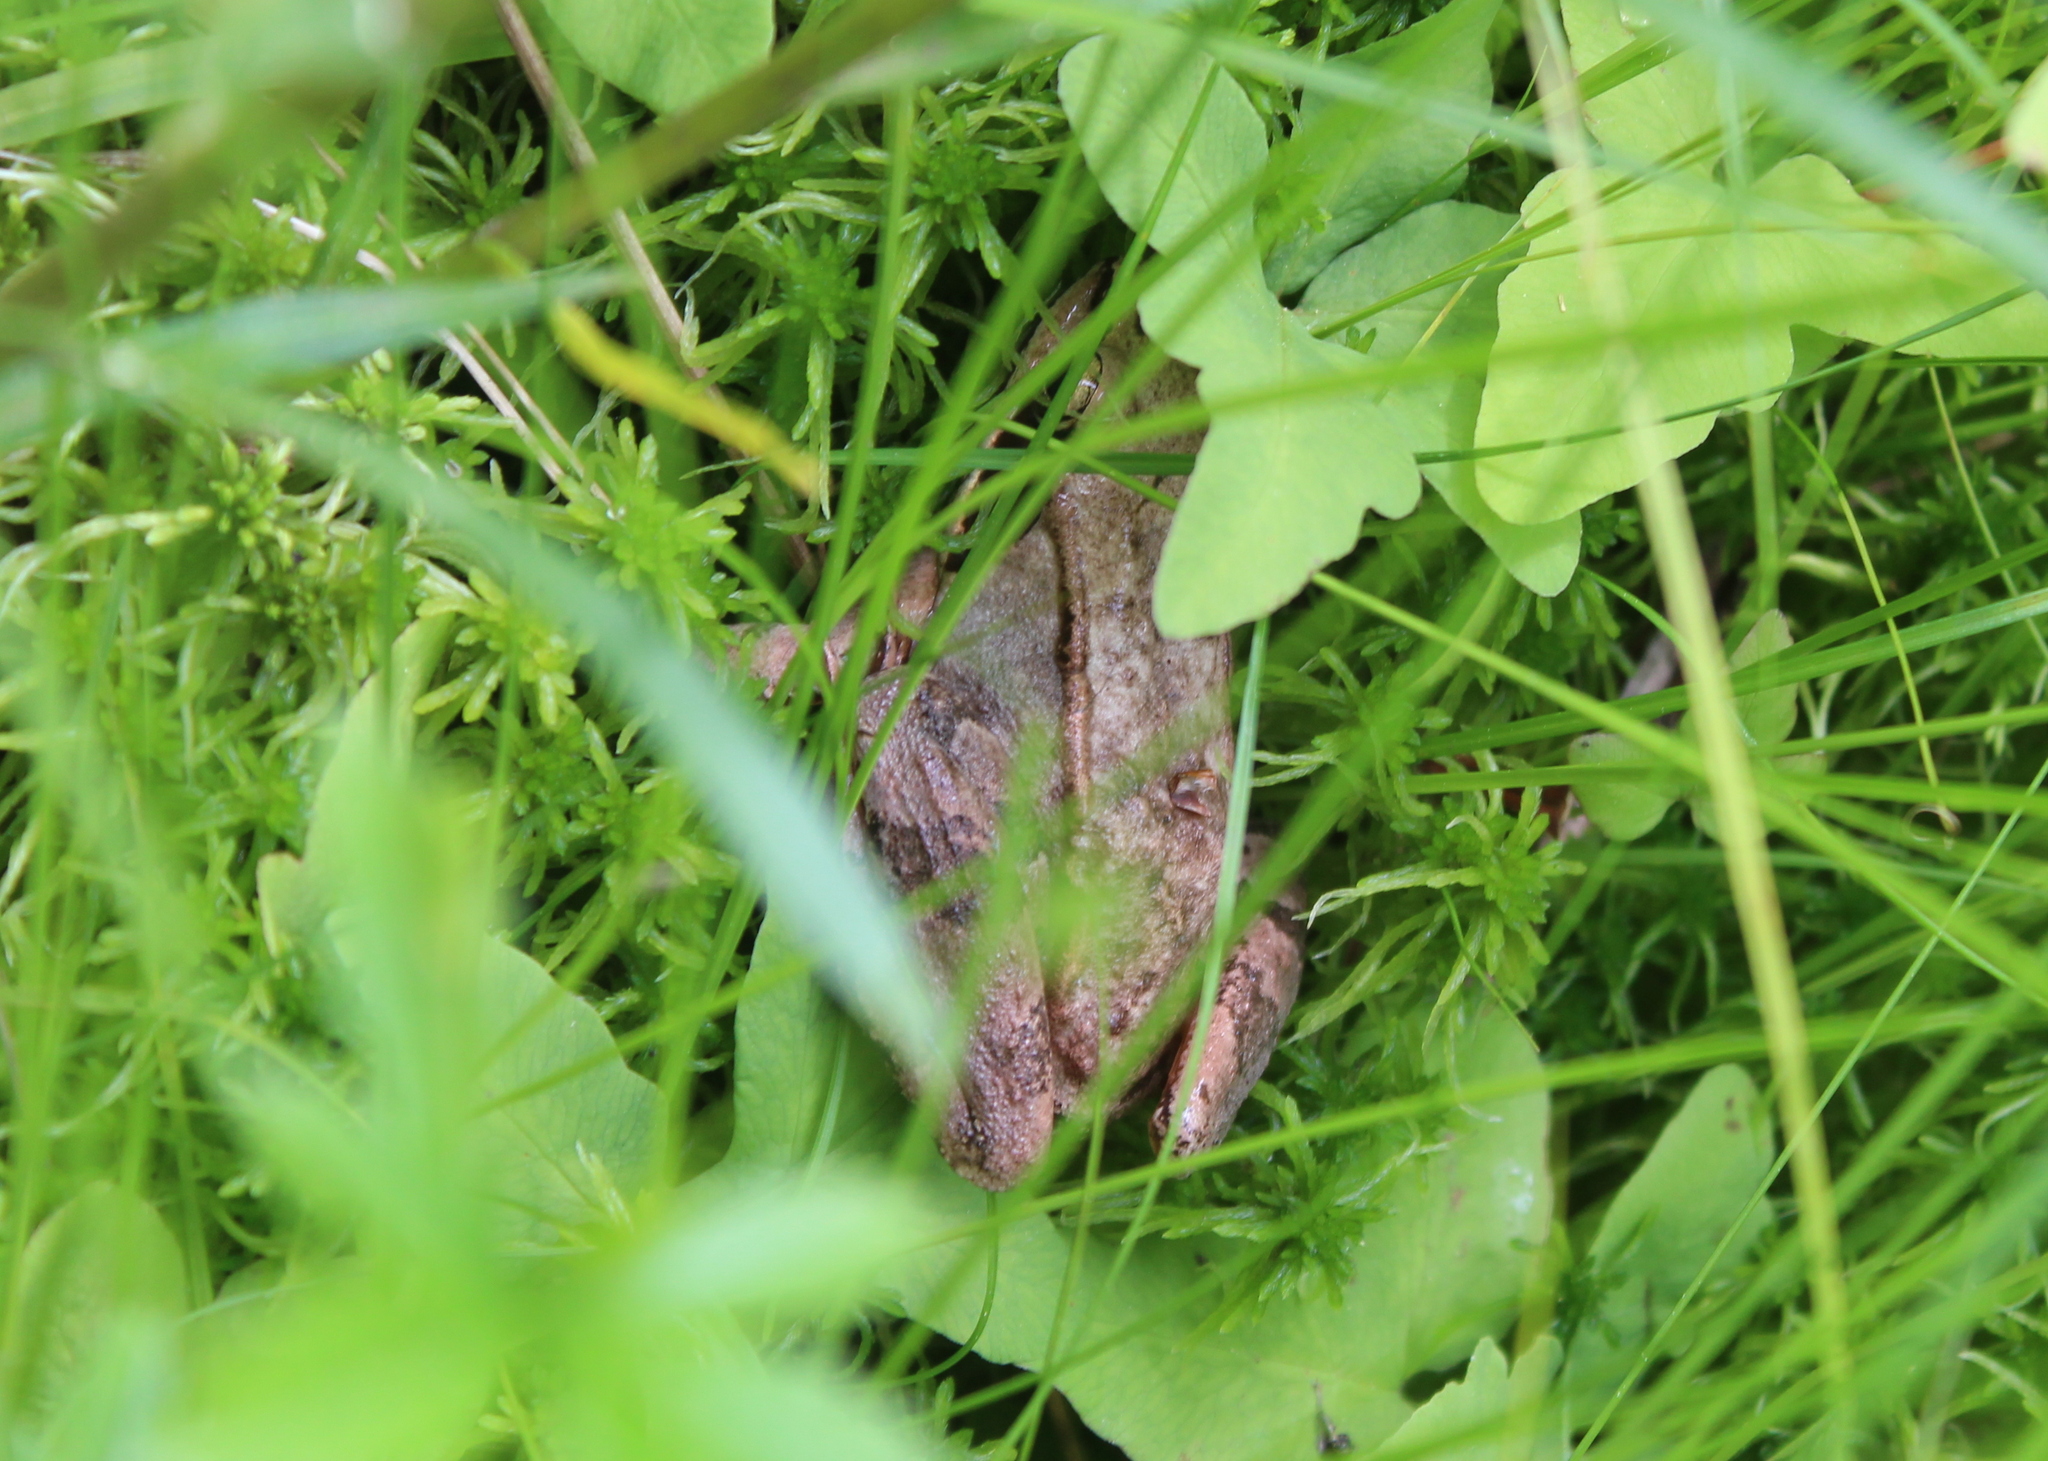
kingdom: Animalia
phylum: Chordata
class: Amphibia
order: Anura
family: Ranidae
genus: Lithobates
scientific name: Lithobates sylvaticus
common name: Wood frog
